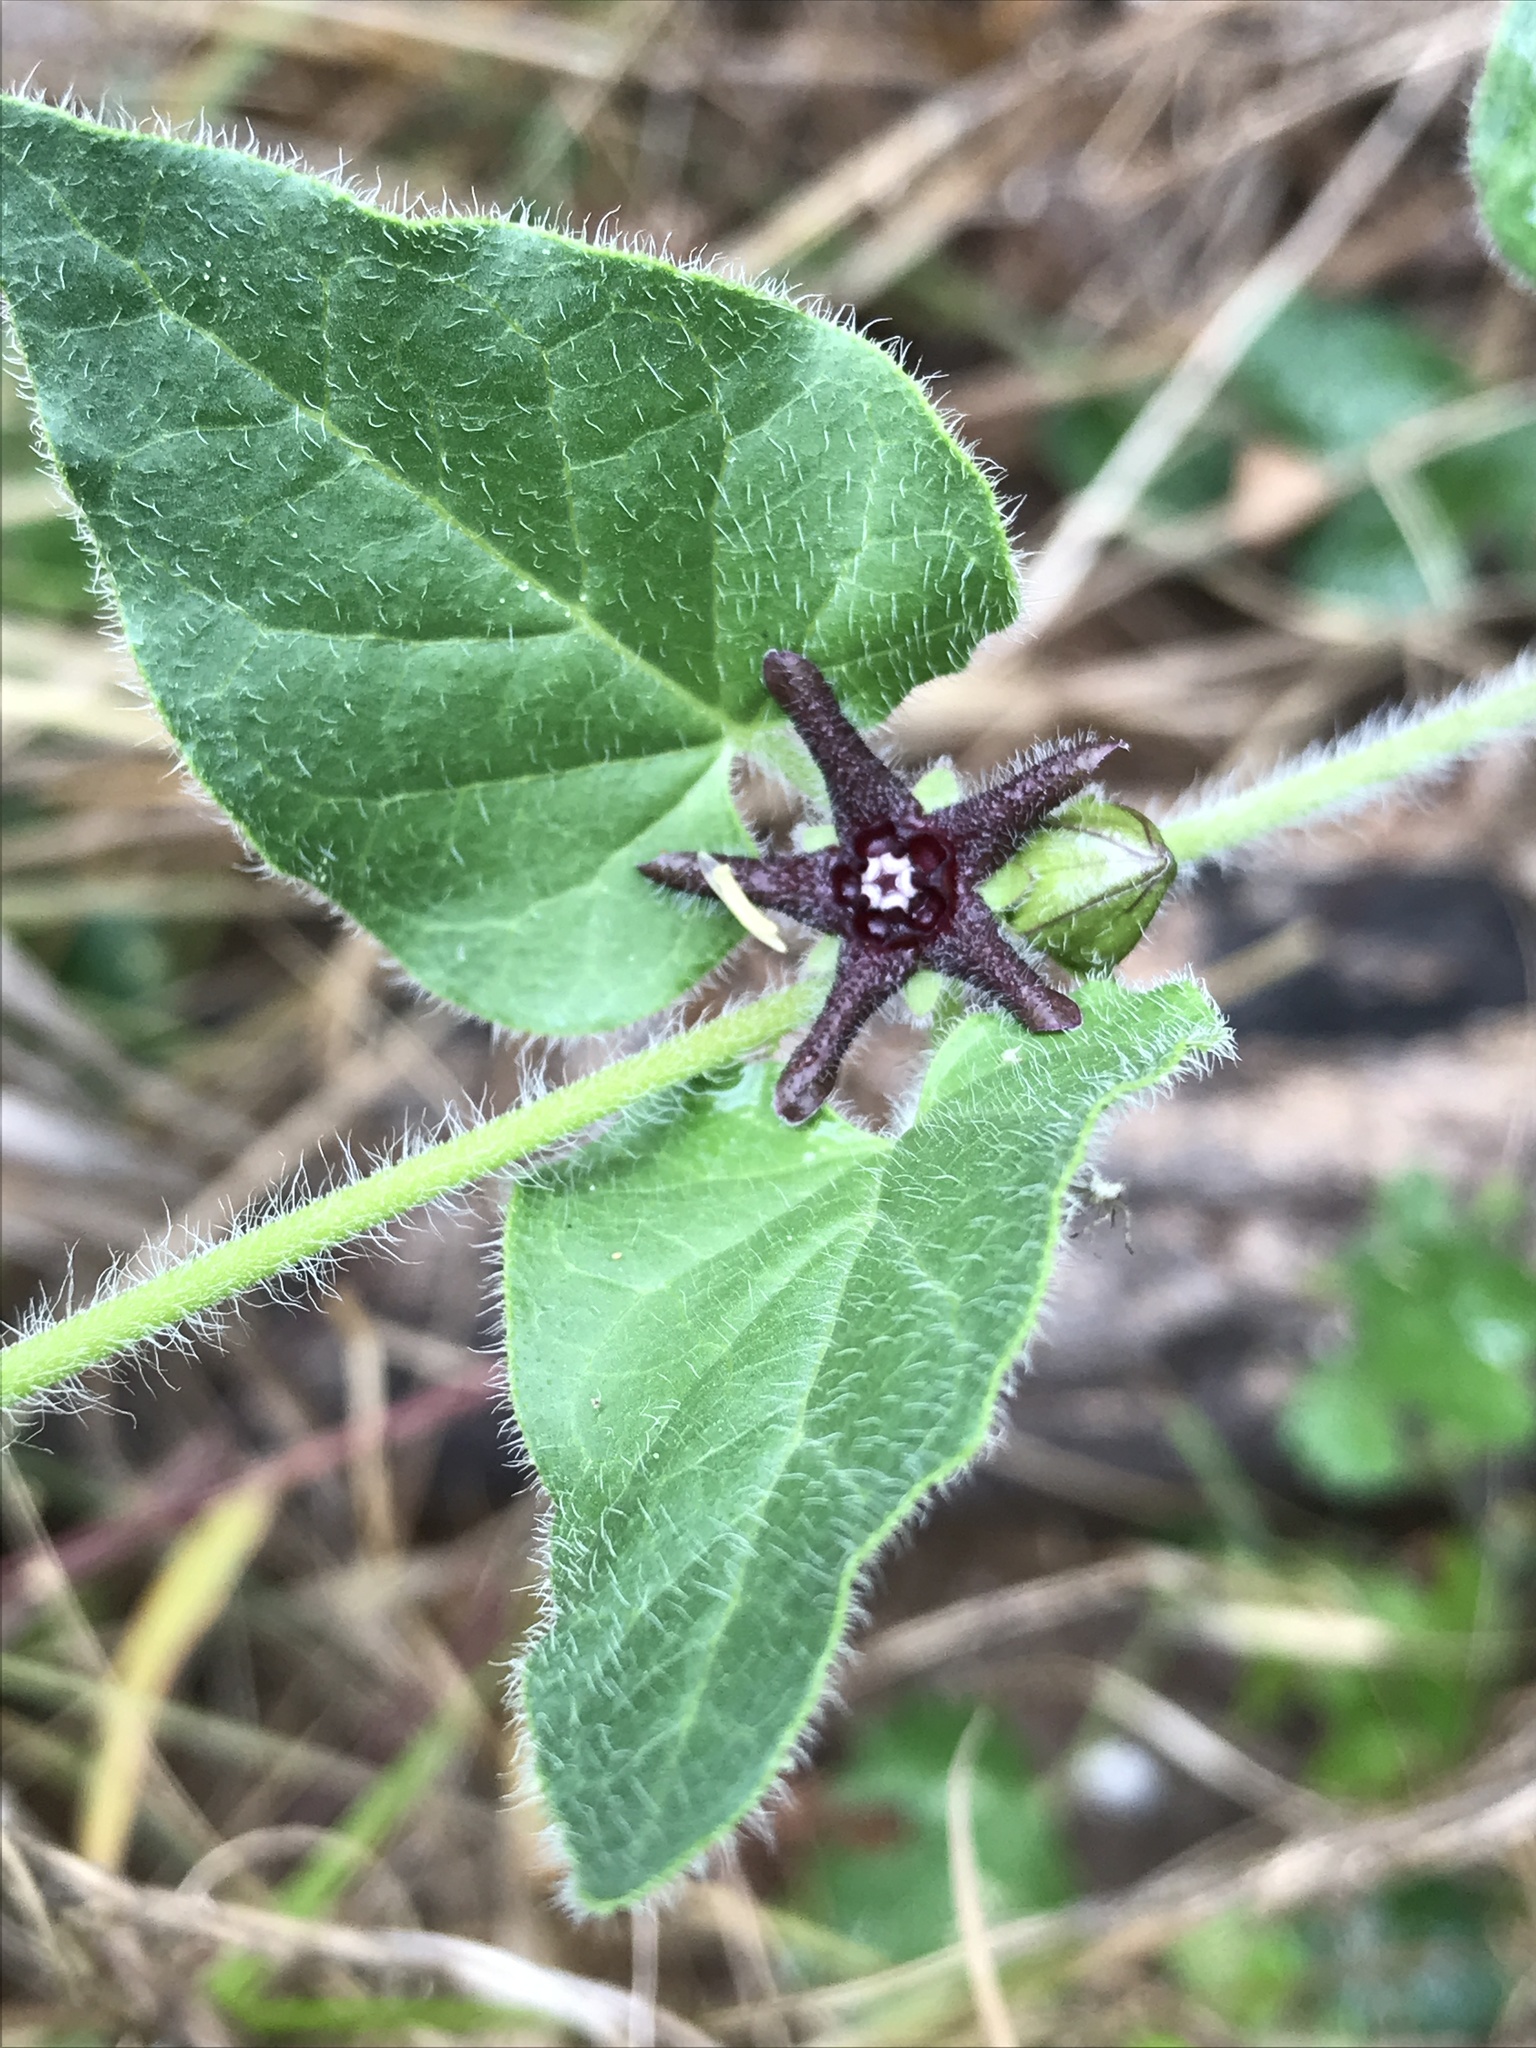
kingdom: Plantae
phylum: Tracheophyta
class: Magnoliopsida
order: Gentianales
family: Apocynaceae
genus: Chthamalia
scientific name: Chthamalia biflora
